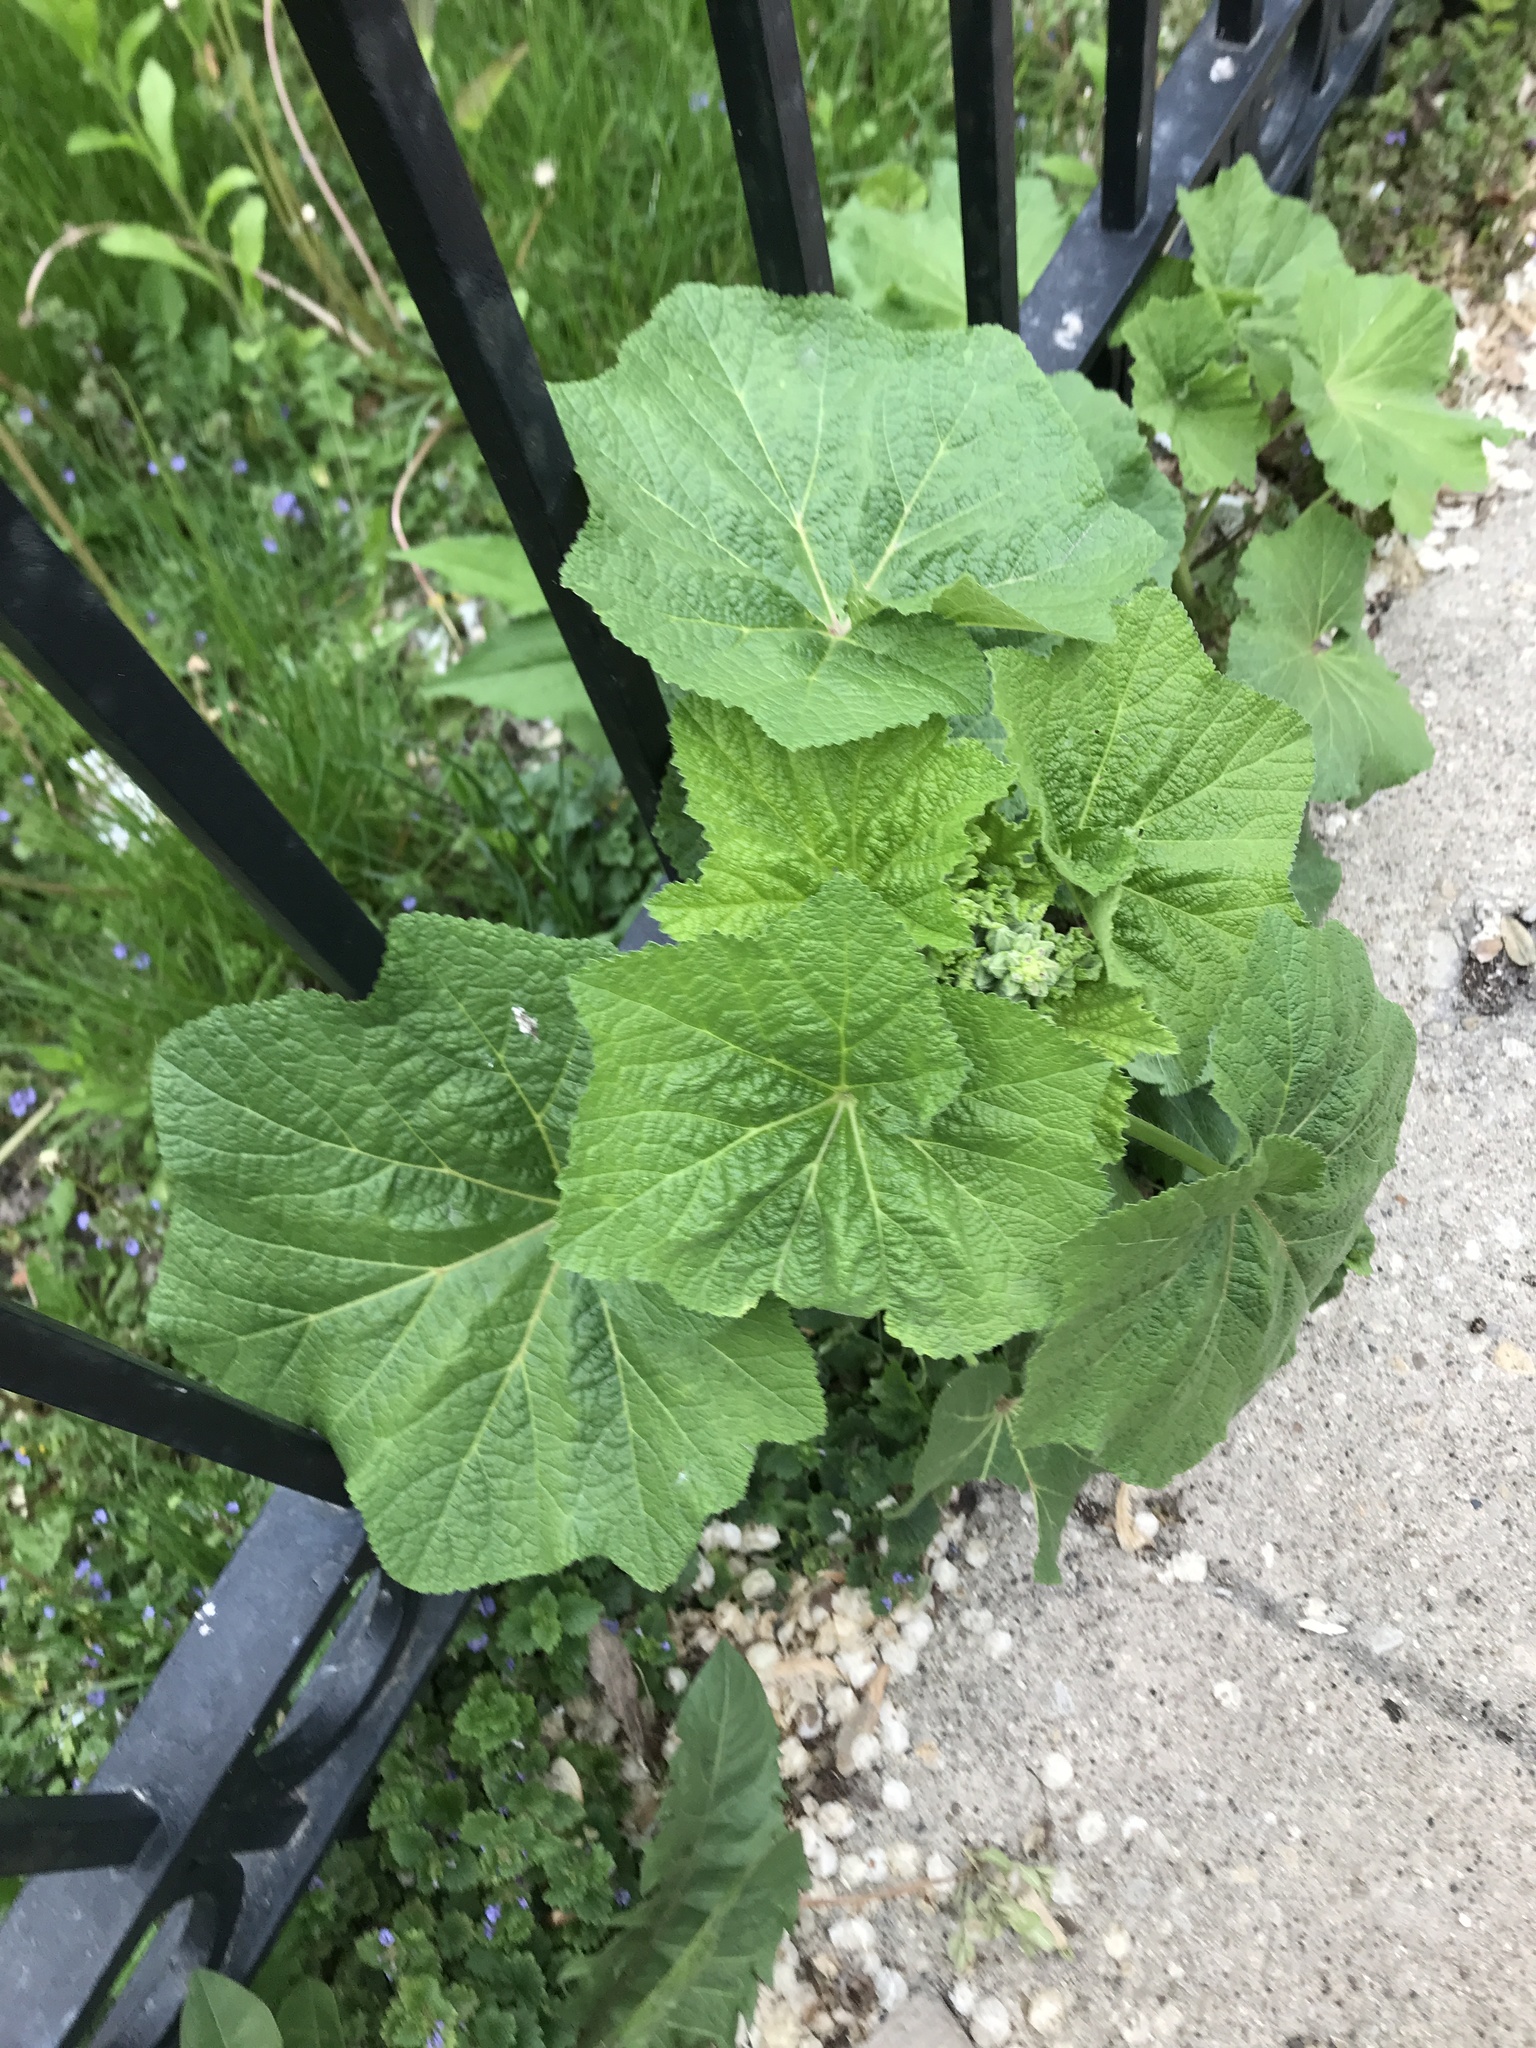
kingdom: Plantae
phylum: Tracheophyta
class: Magnoliopsida
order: Malvales
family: Malvaceae
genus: Alcea
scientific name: Alcea rosea
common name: Hollyhock
